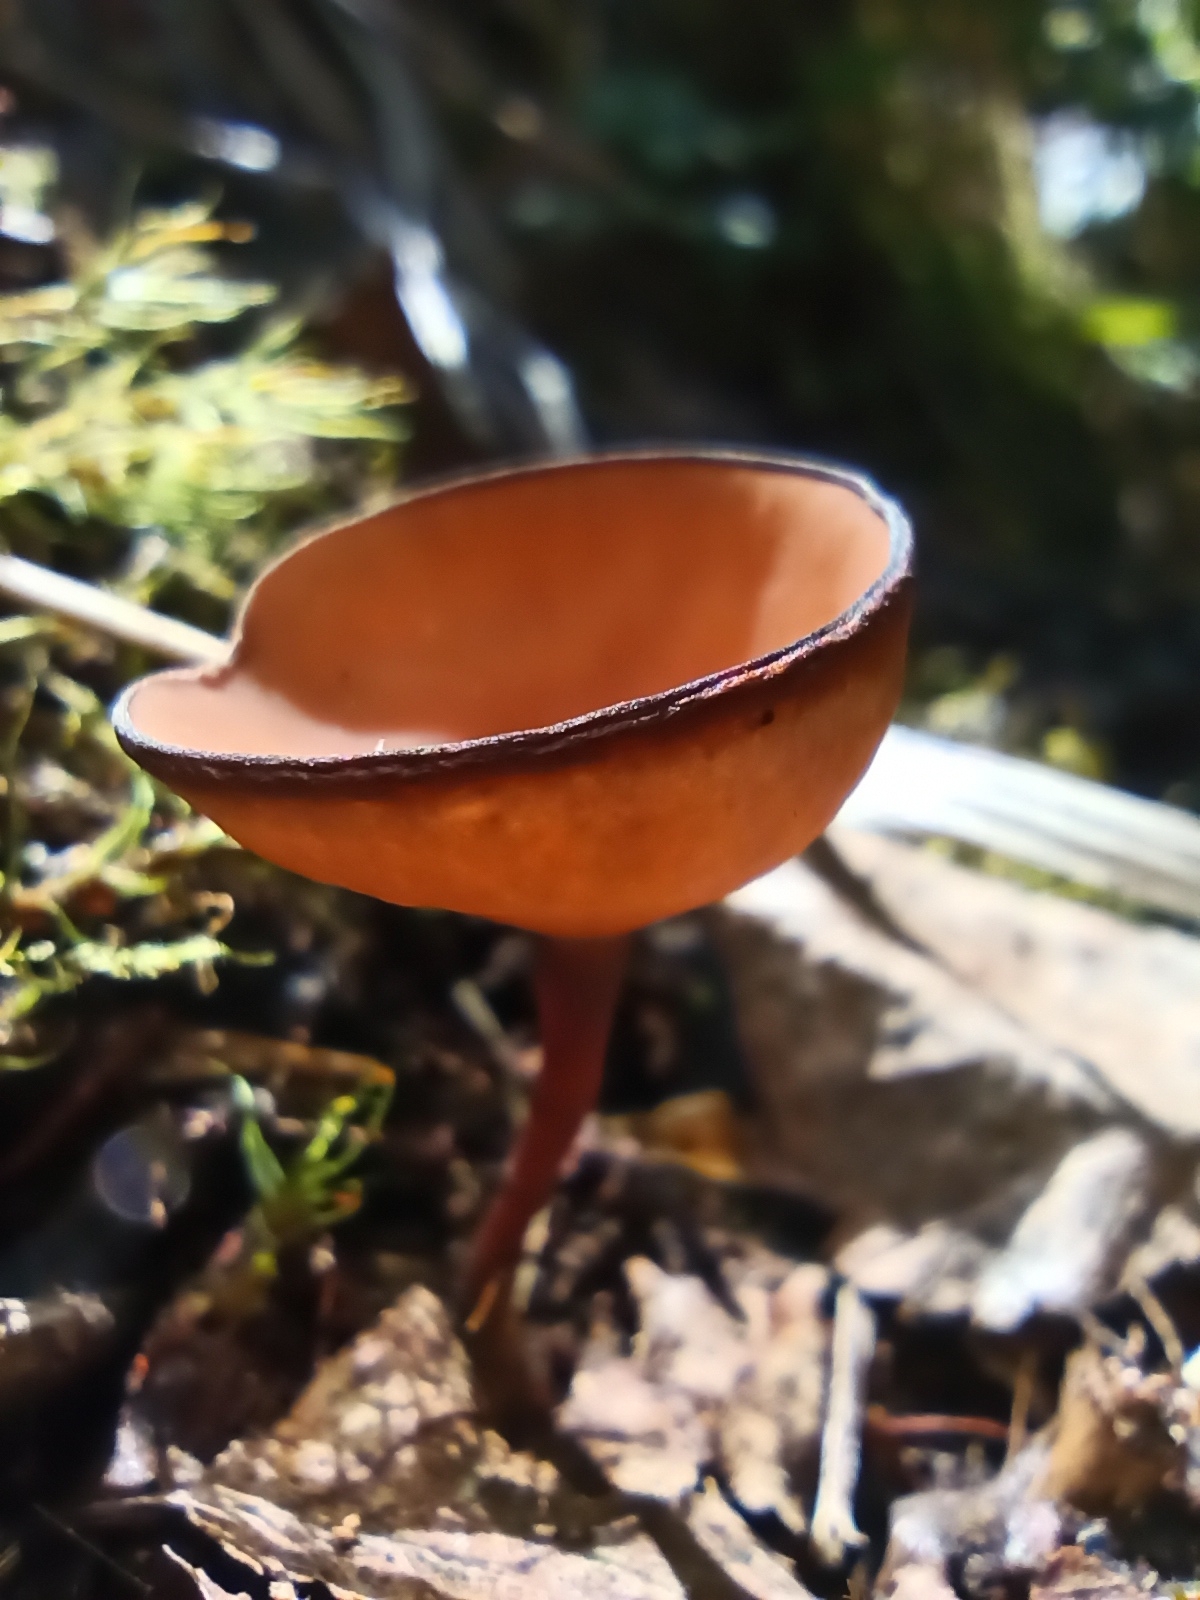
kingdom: Fungi
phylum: Ascomycota
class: Leotiomycetes
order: Helotiales
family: Sclerotiniaceae
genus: Dumontinia
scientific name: Dumontinia tuberosa
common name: Anemone cup
